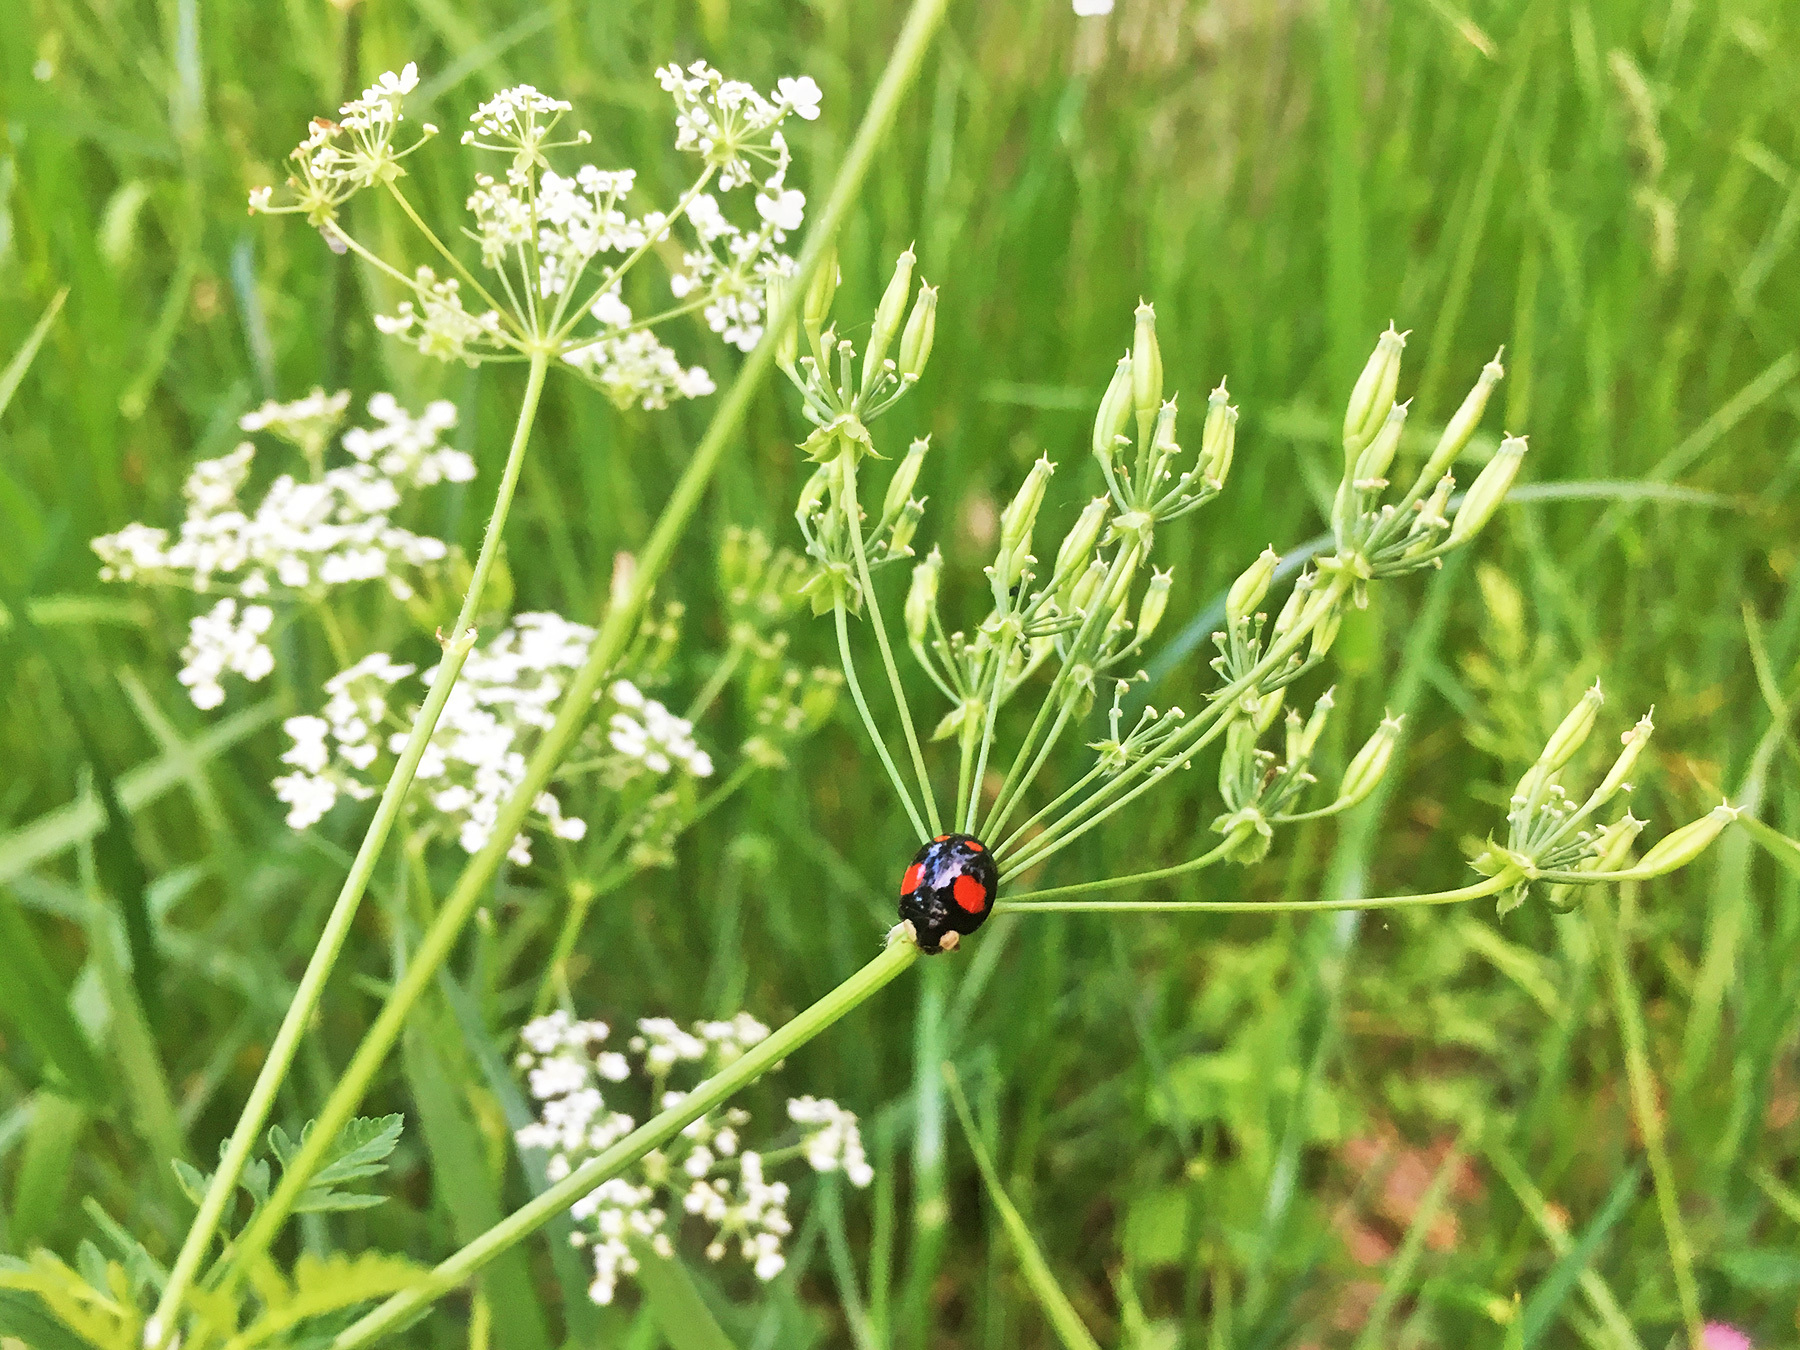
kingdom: Animalia
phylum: Arthropoda
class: Insecta
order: Coleoptera
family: Coccinellidae
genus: Harmonia
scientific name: Harmonia axyridis
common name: Harlequin ladybird
